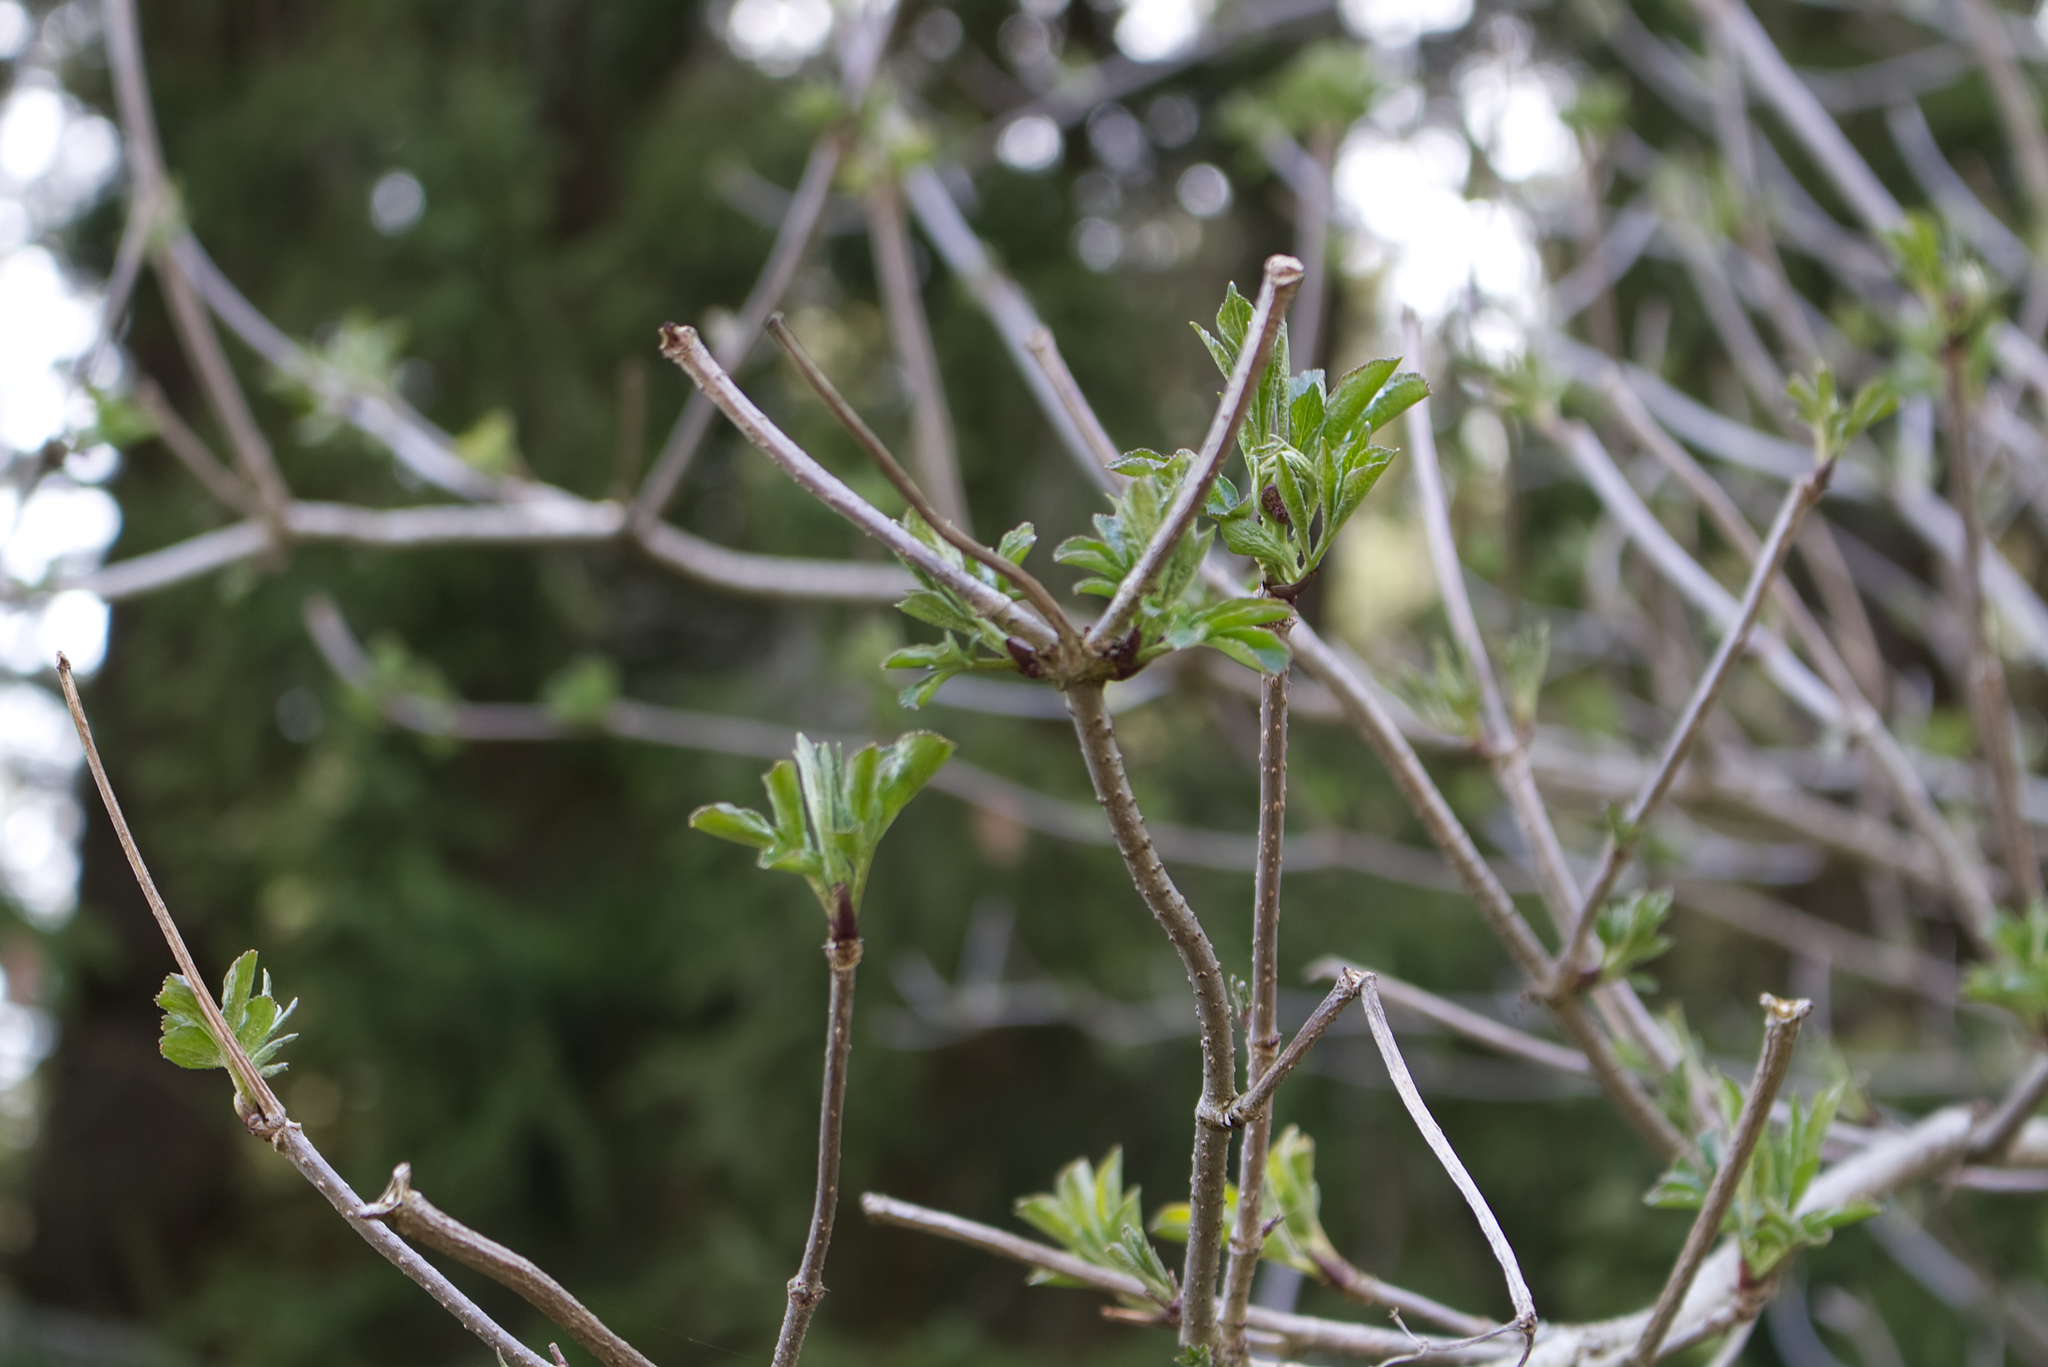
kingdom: Plantae
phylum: Tracheophyta
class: Magnoliopsida
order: Dipsacales
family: Viburnaceae
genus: Sambucus
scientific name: Sambucus racemosa
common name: Red-berried elder
